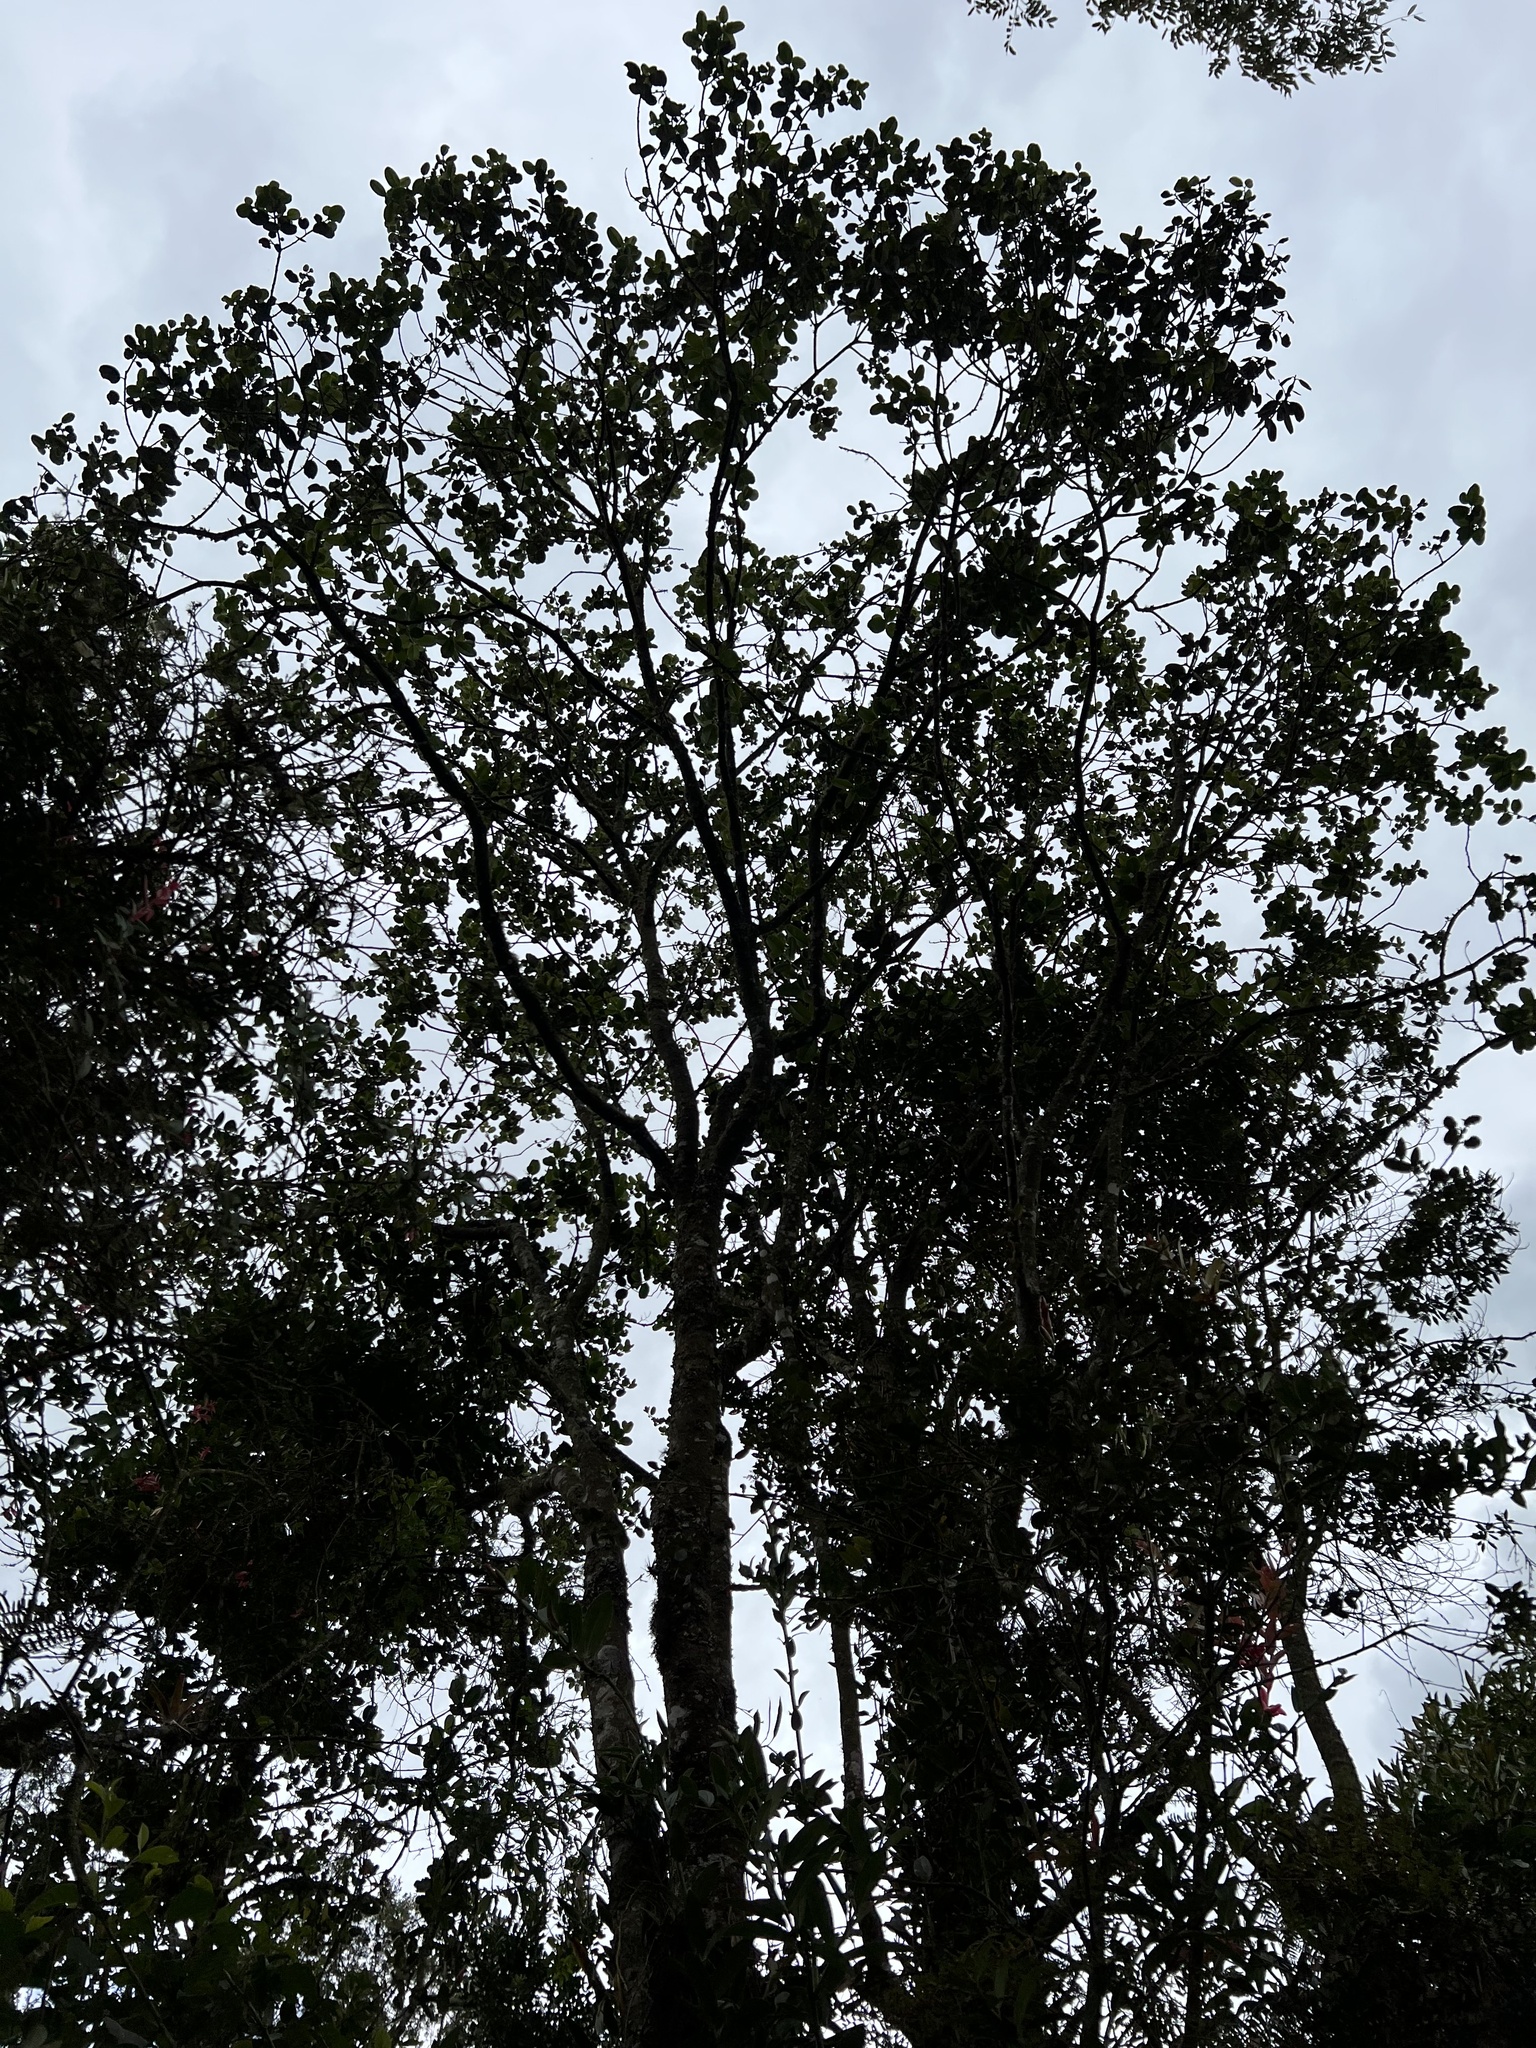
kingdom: Plantae
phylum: Tracheophyta
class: Magnoliopsida
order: Aquifoliales
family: Aquifoliaceae
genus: Ilex
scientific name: Ilex obtusata
